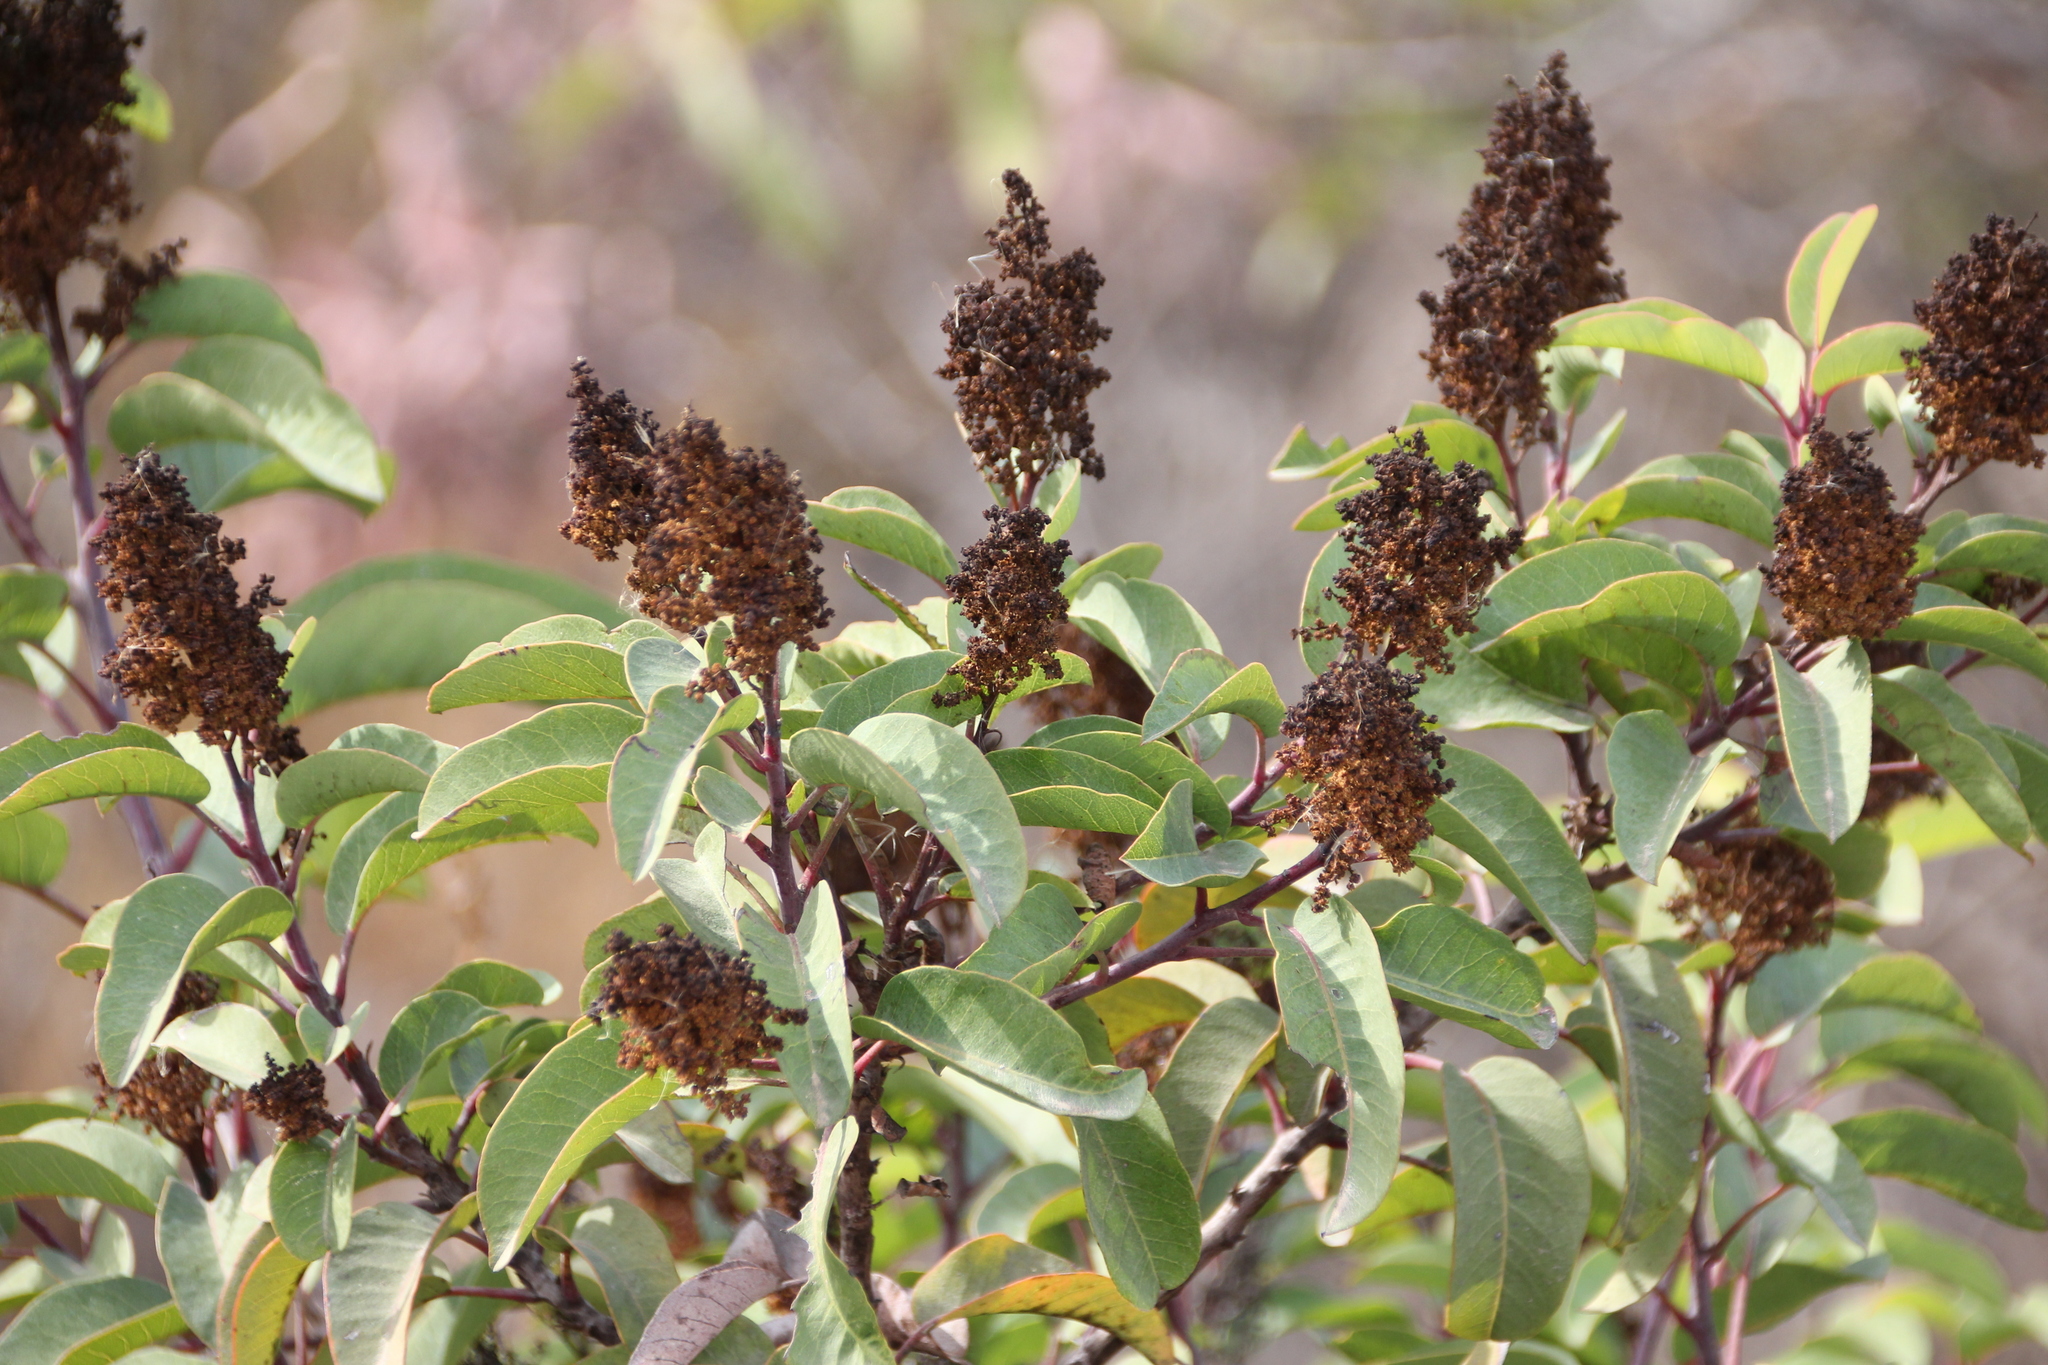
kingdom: Plantae
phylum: Tracheophyta
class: Magnoliopsida
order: Sapindales
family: Anacardiaceae
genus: Malosma
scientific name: Malosma laurina
